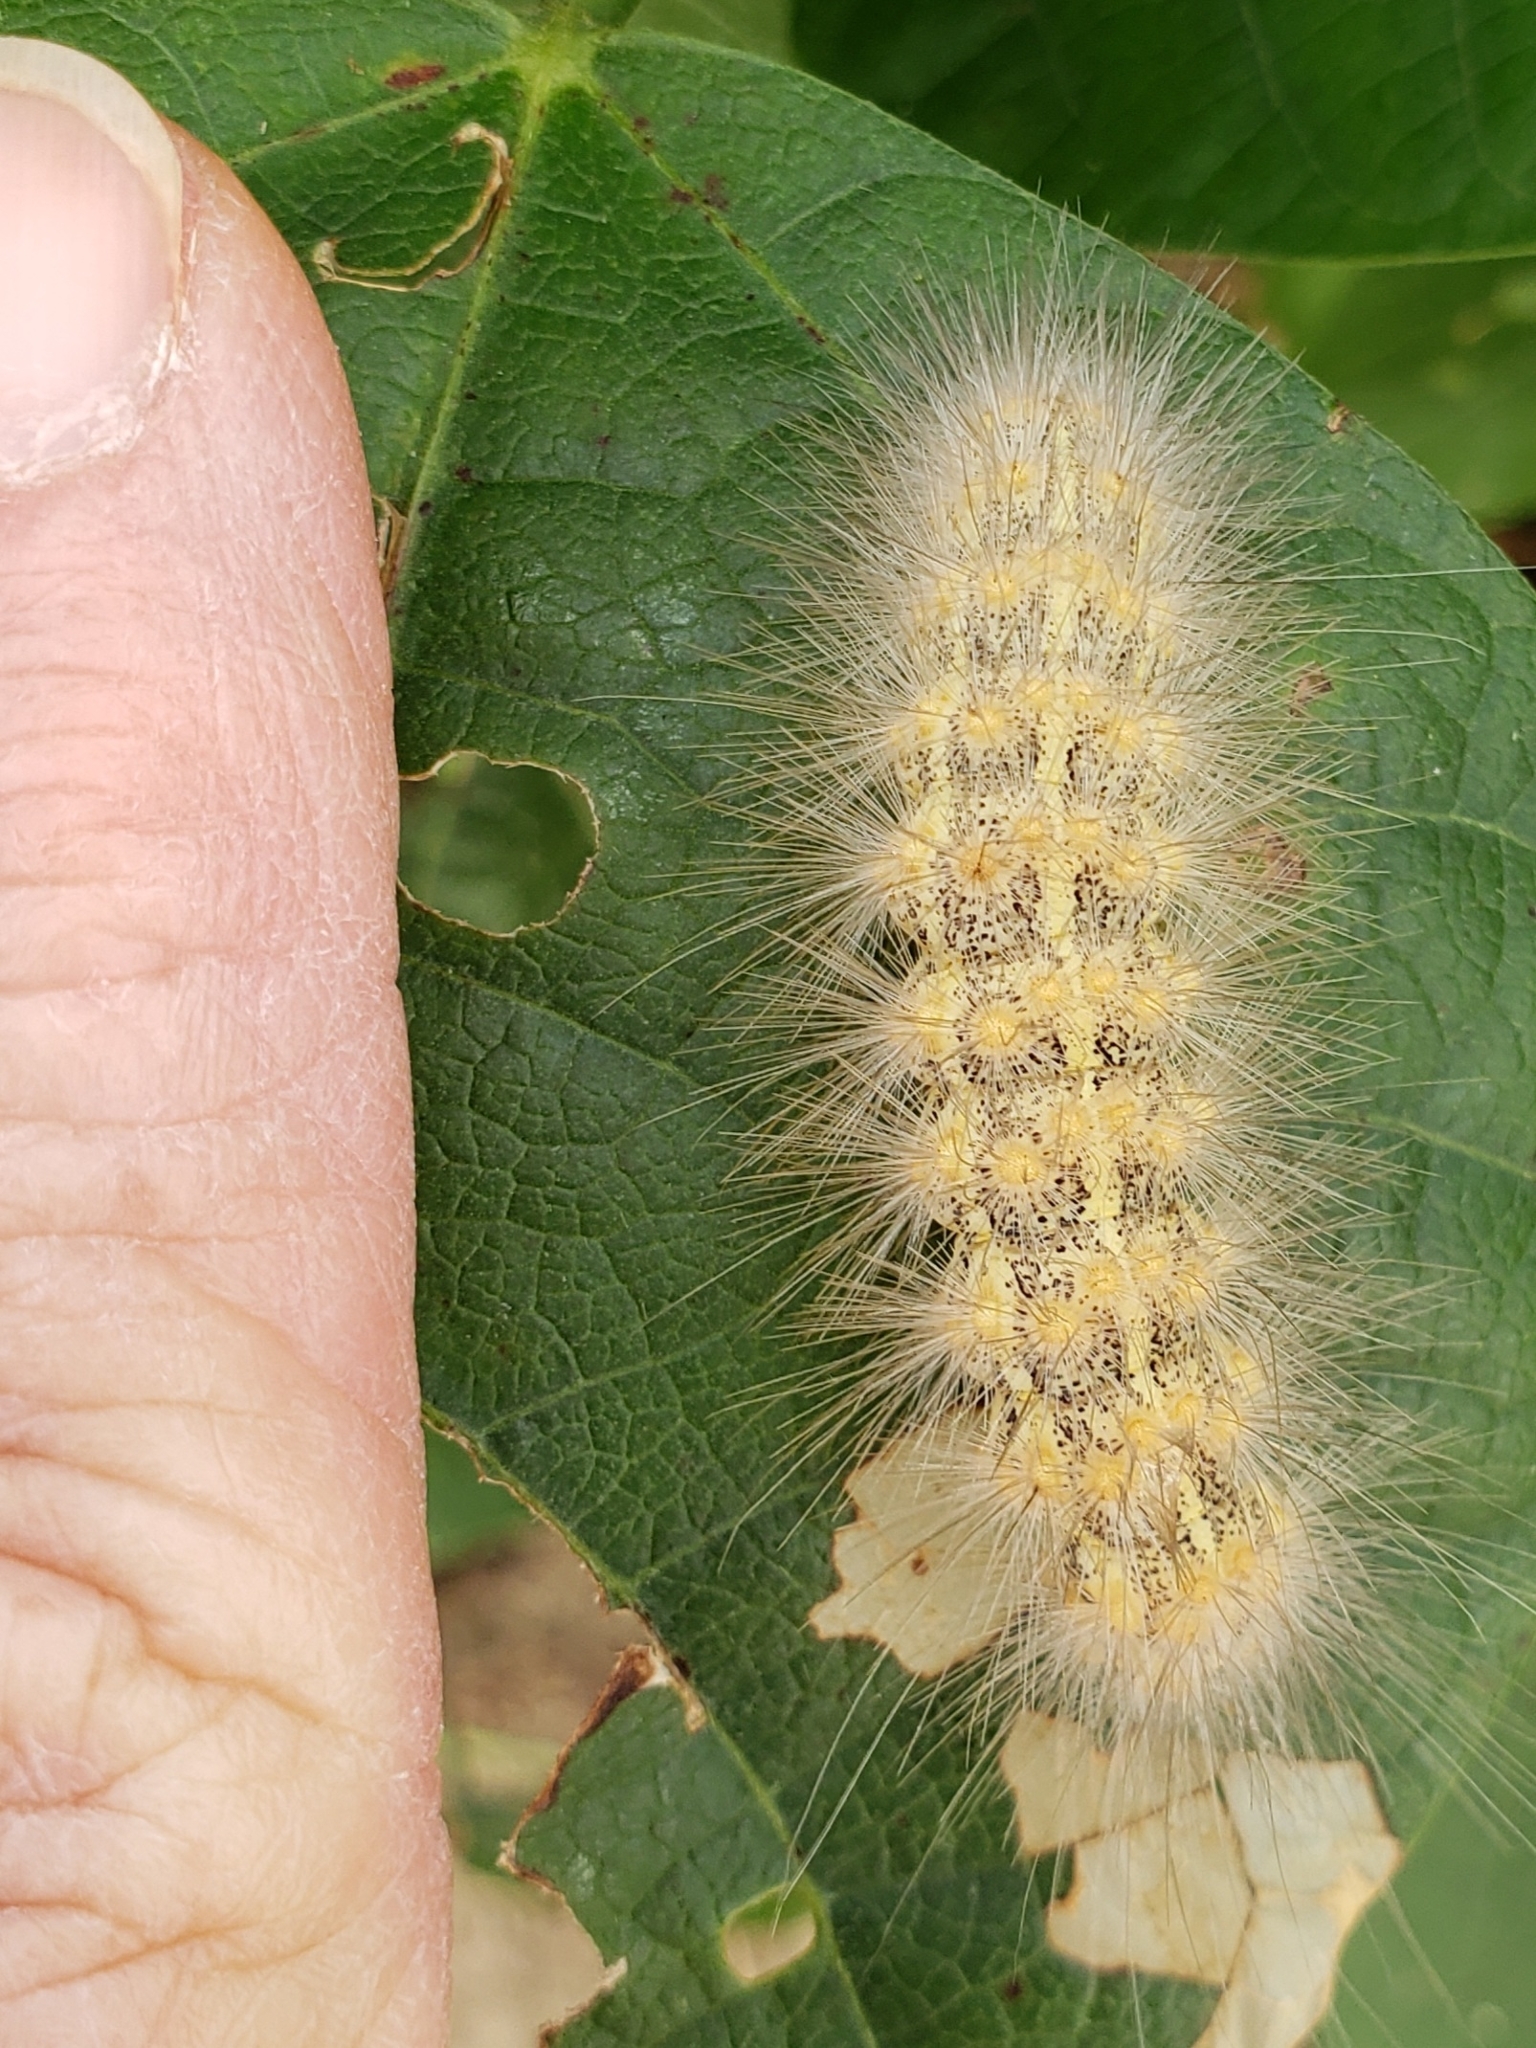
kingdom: Animalia
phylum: Arthropoda
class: Insecta
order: Lepidoptera
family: Erebidae
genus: Estigmene
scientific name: Estigmene acrea
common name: Salt marsh moth
